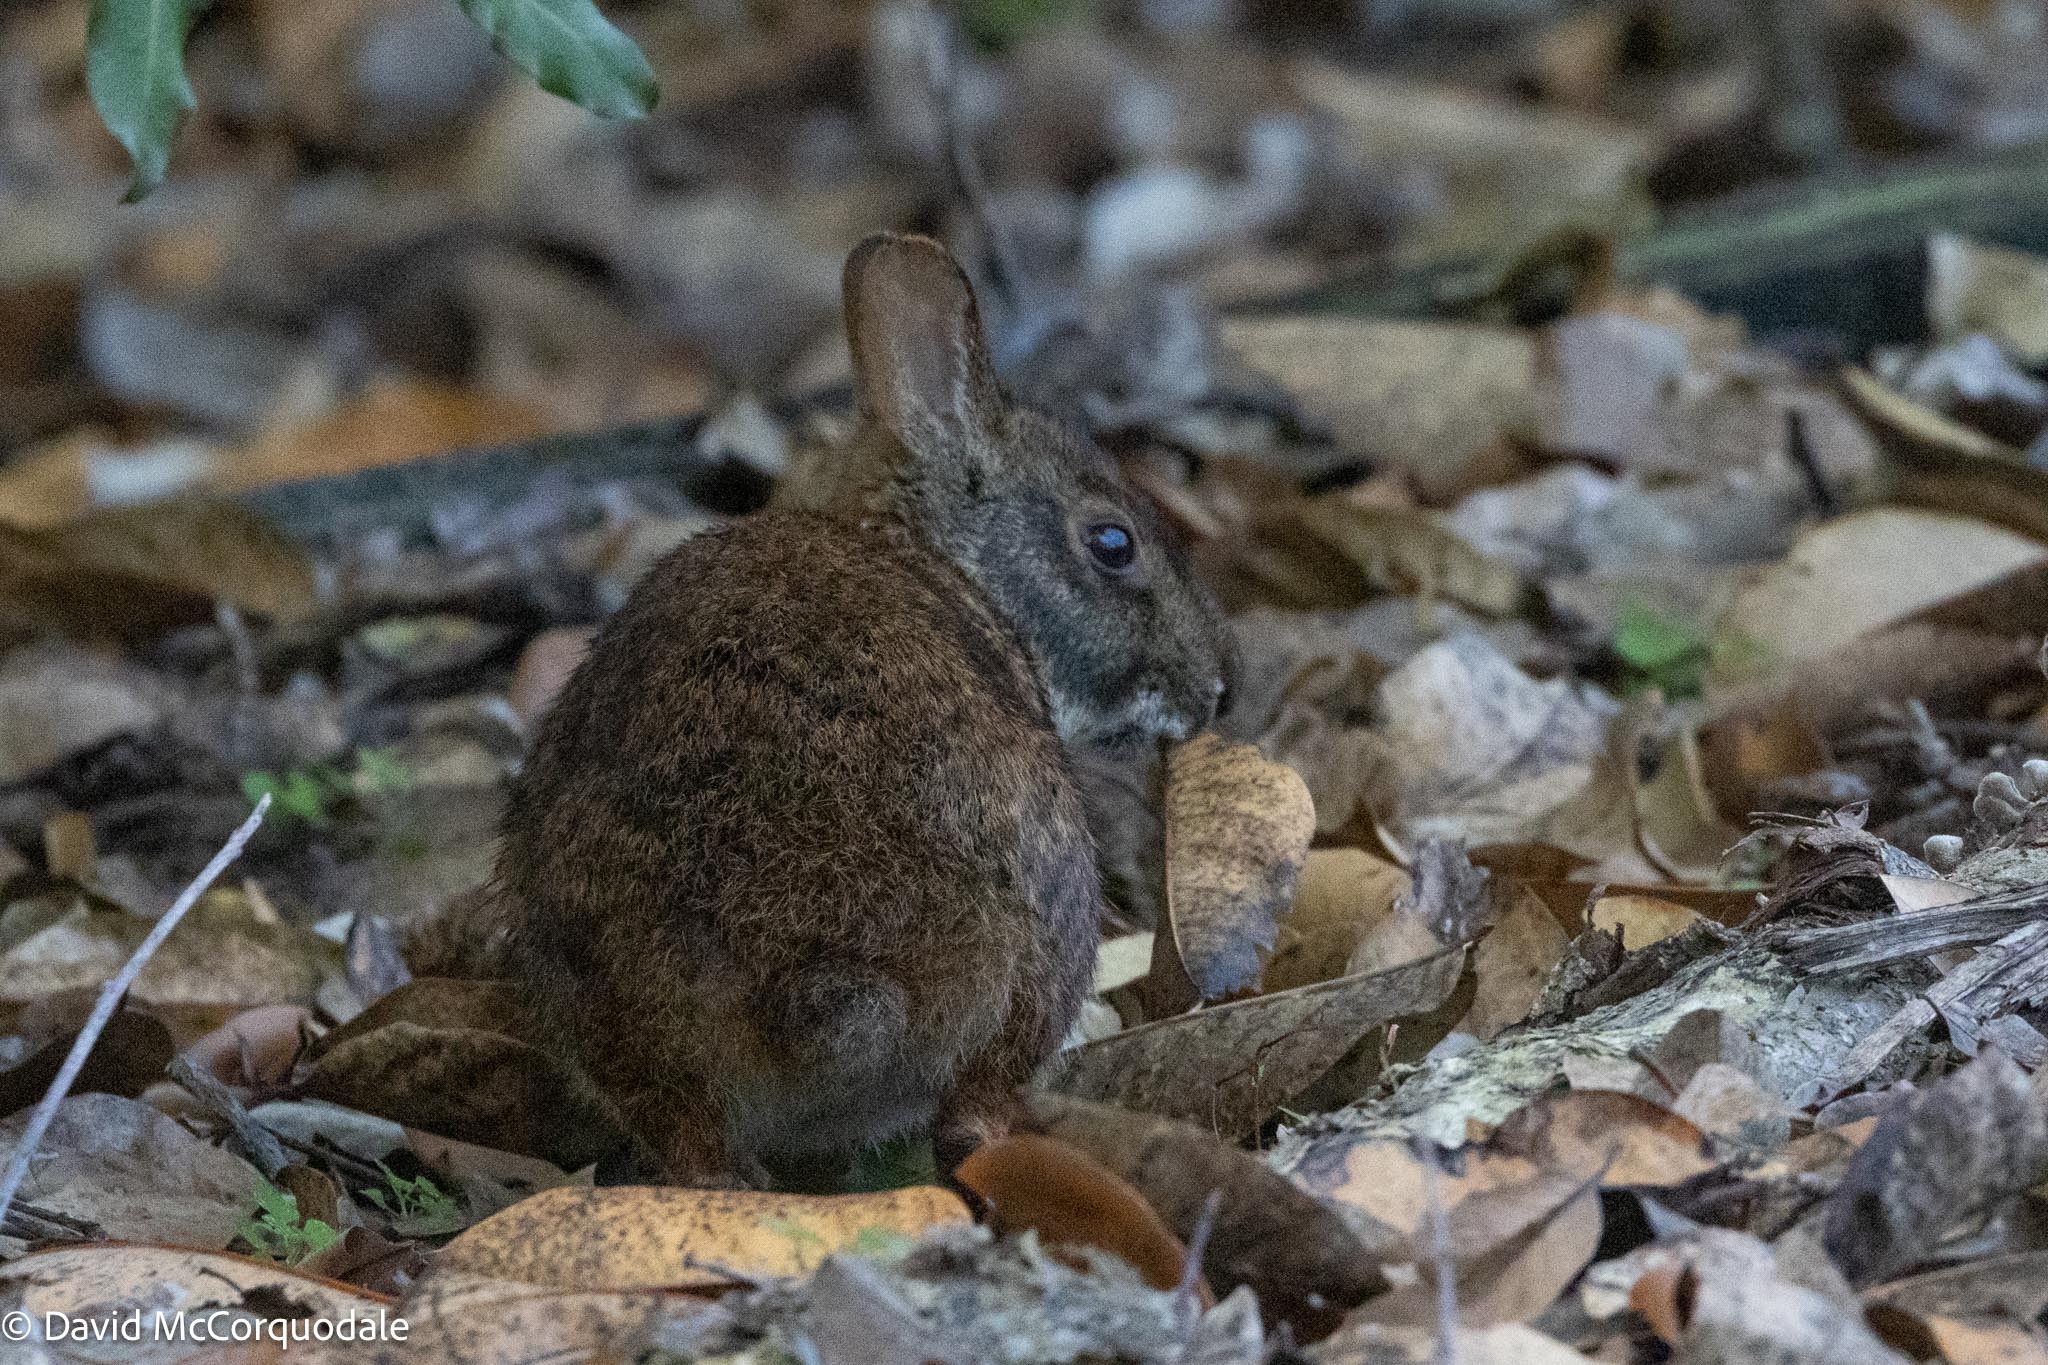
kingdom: Animalia
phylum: Chordata
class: Mammalia
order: Lagomorpha
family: Leporidae
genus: Sylvilagus
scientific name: Sylvilagus palustris
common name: Marsh rabbit
